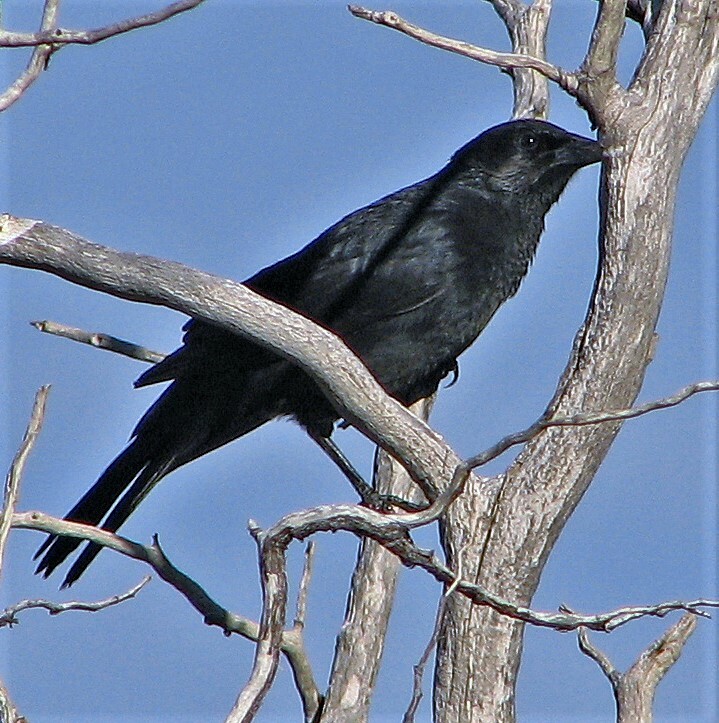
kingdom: Animalia
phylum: Chordata
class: Aves
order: Passeriformes
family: Icteridae
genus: Curaeus
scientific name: Curaeus curaeus
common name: Austral blackbird
